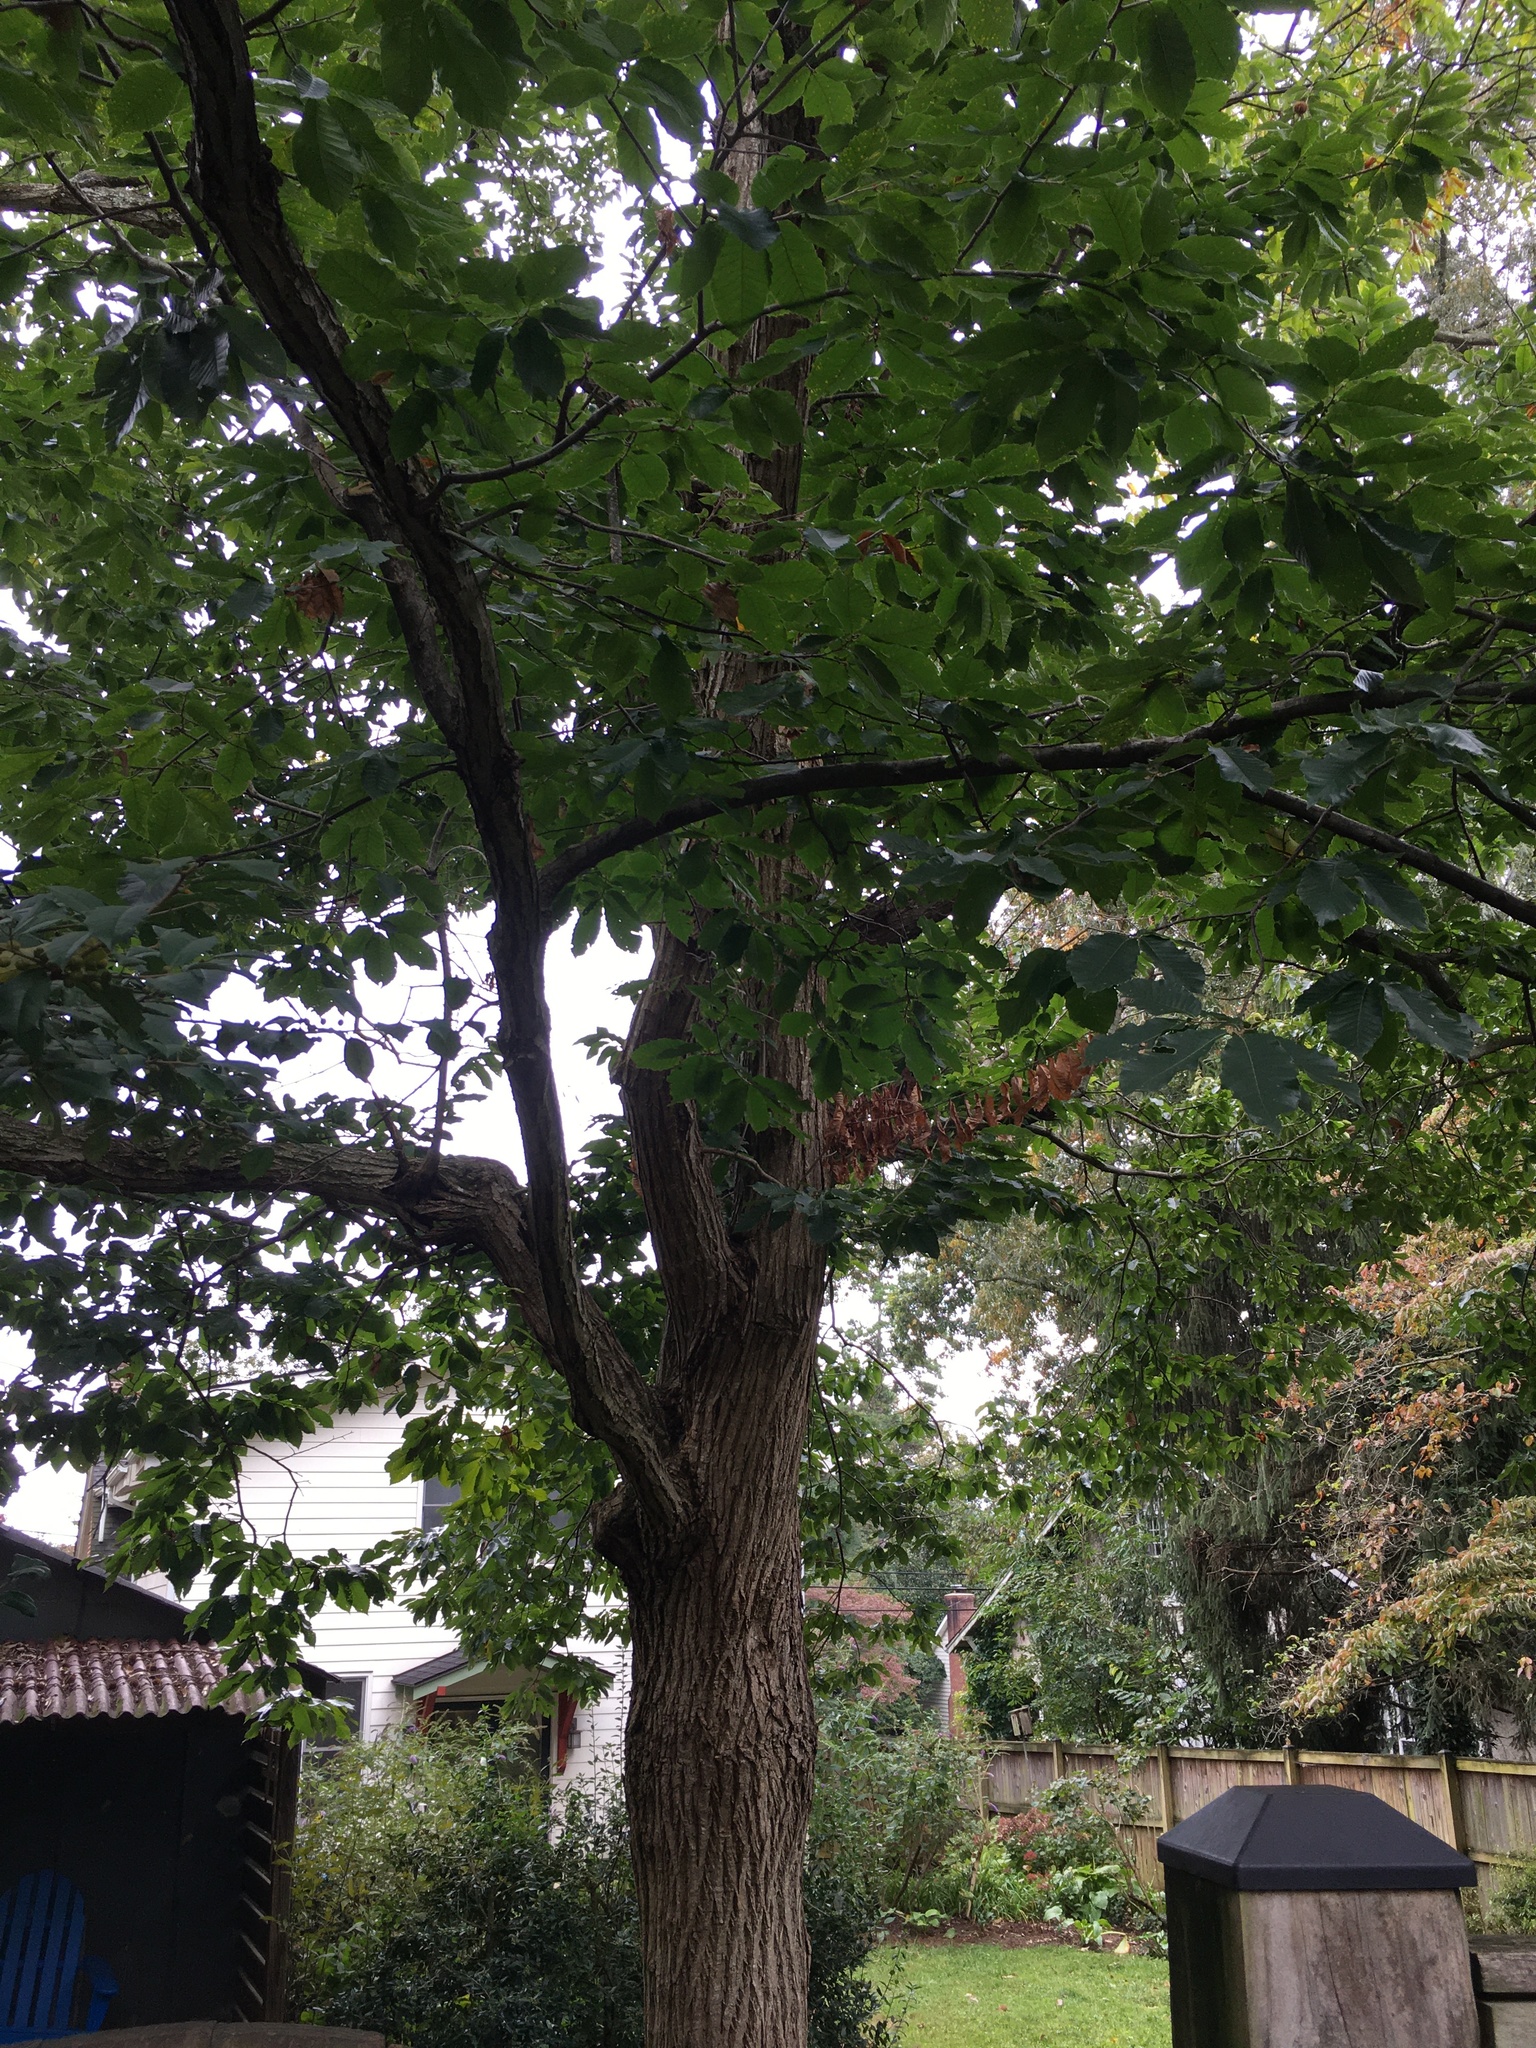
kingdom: Plantae
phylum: Tracheophyta
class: Magnoliopsida
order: Fagales
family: Fagaceae
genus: Castanea
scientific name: Castanea mollissima
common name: Chinese chestnut
